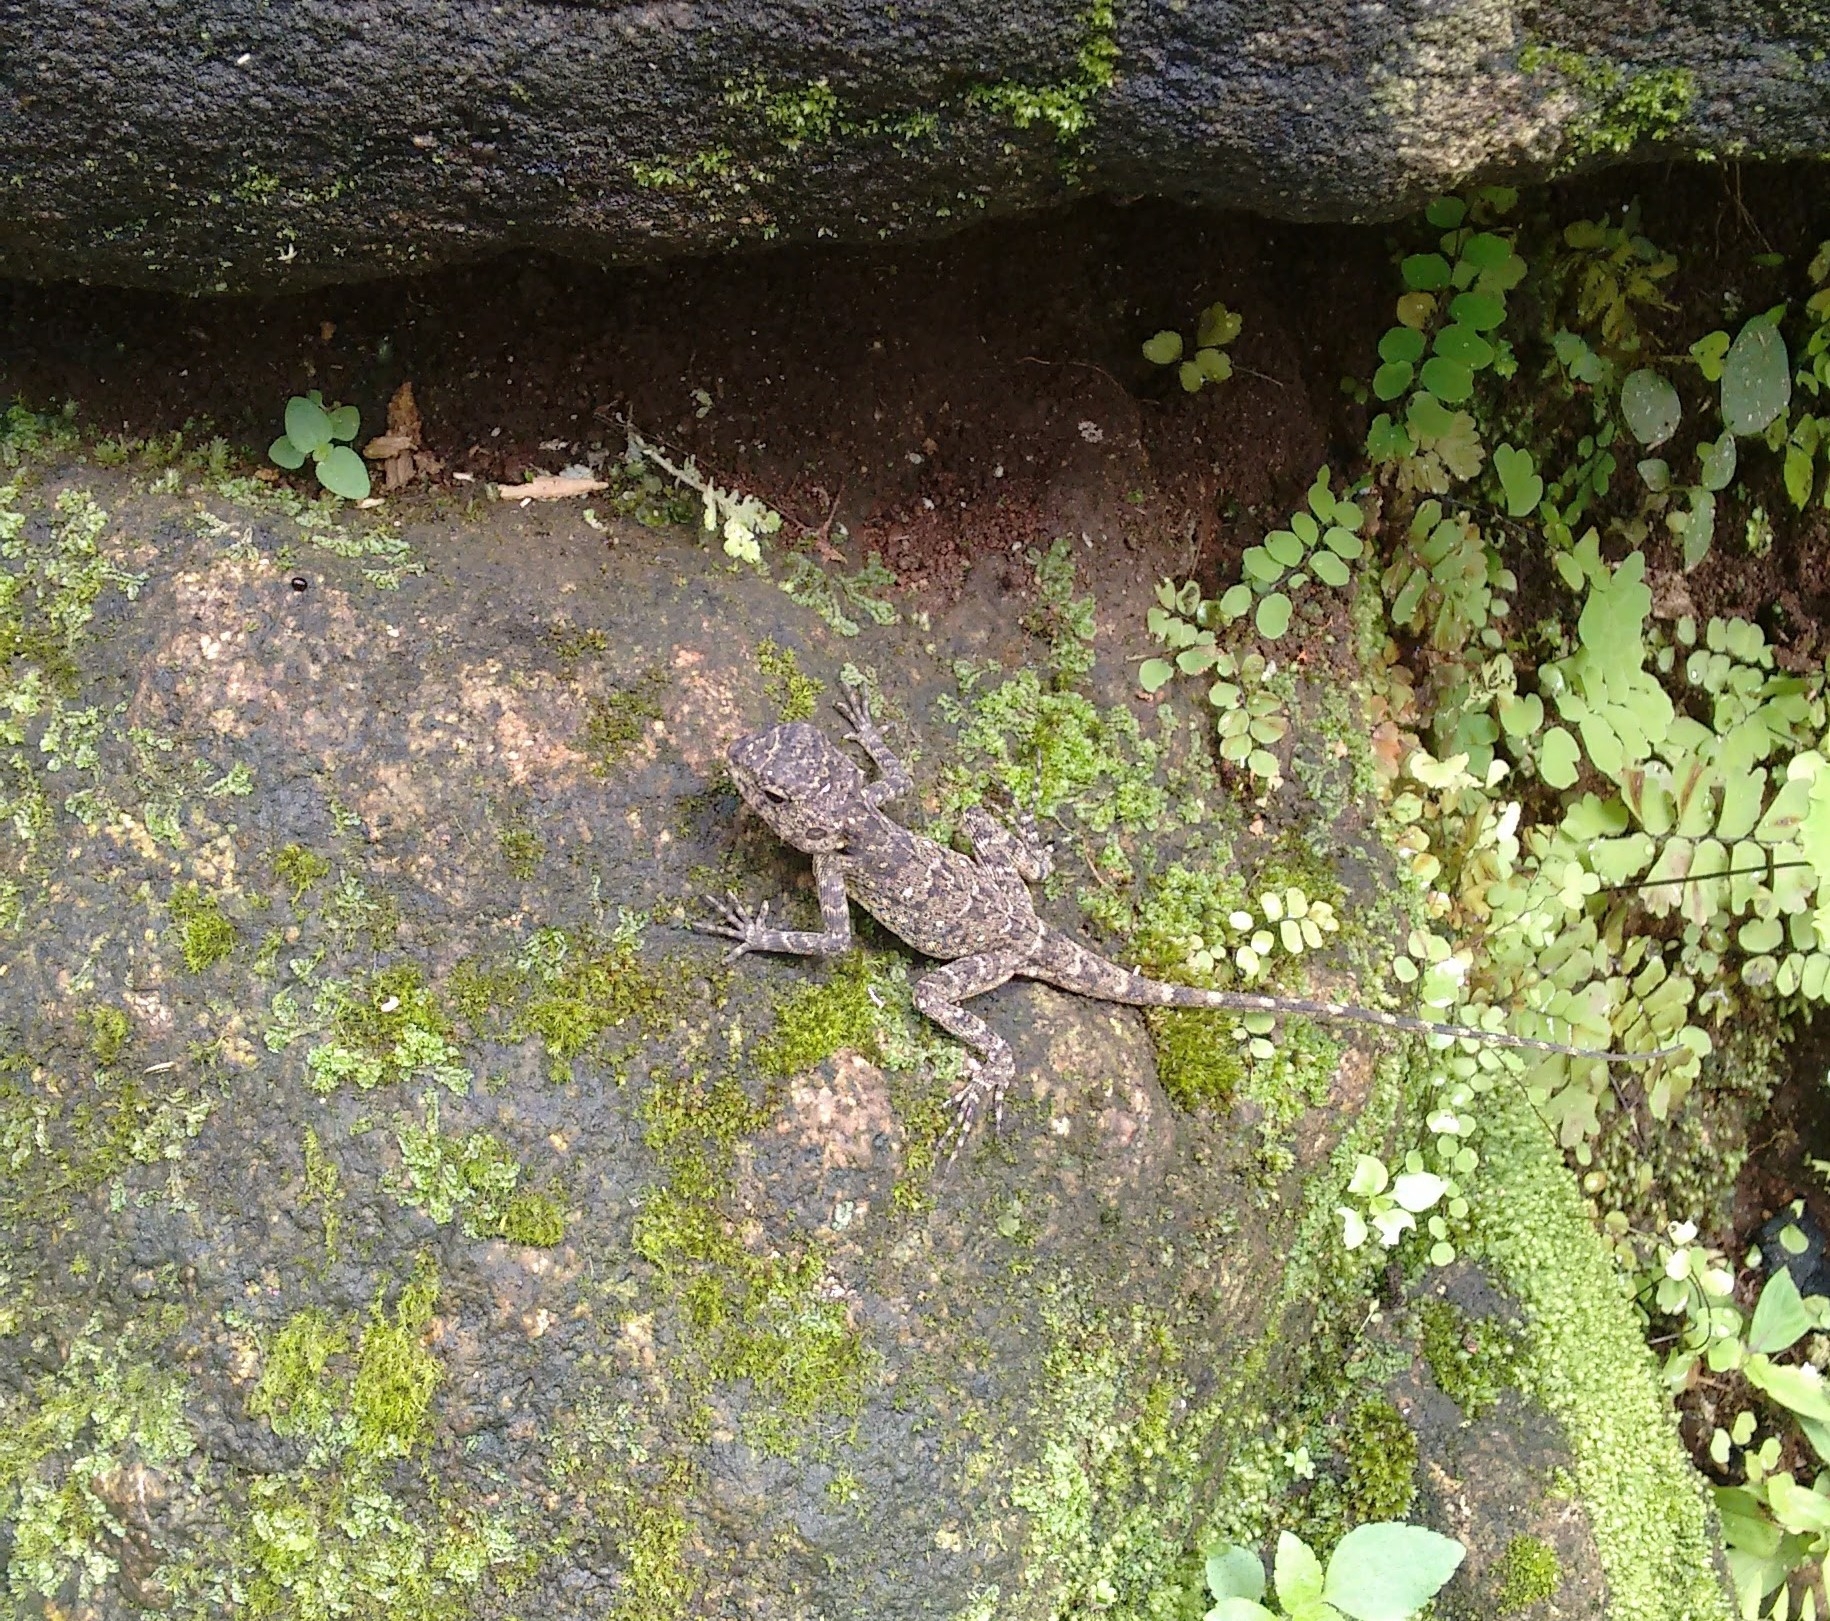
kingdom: Animalia
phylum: Chordata
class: Squamata
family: Agamidae
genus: Psammophilus
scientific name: Psammophilus dorsalis
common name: South indian rock agama
